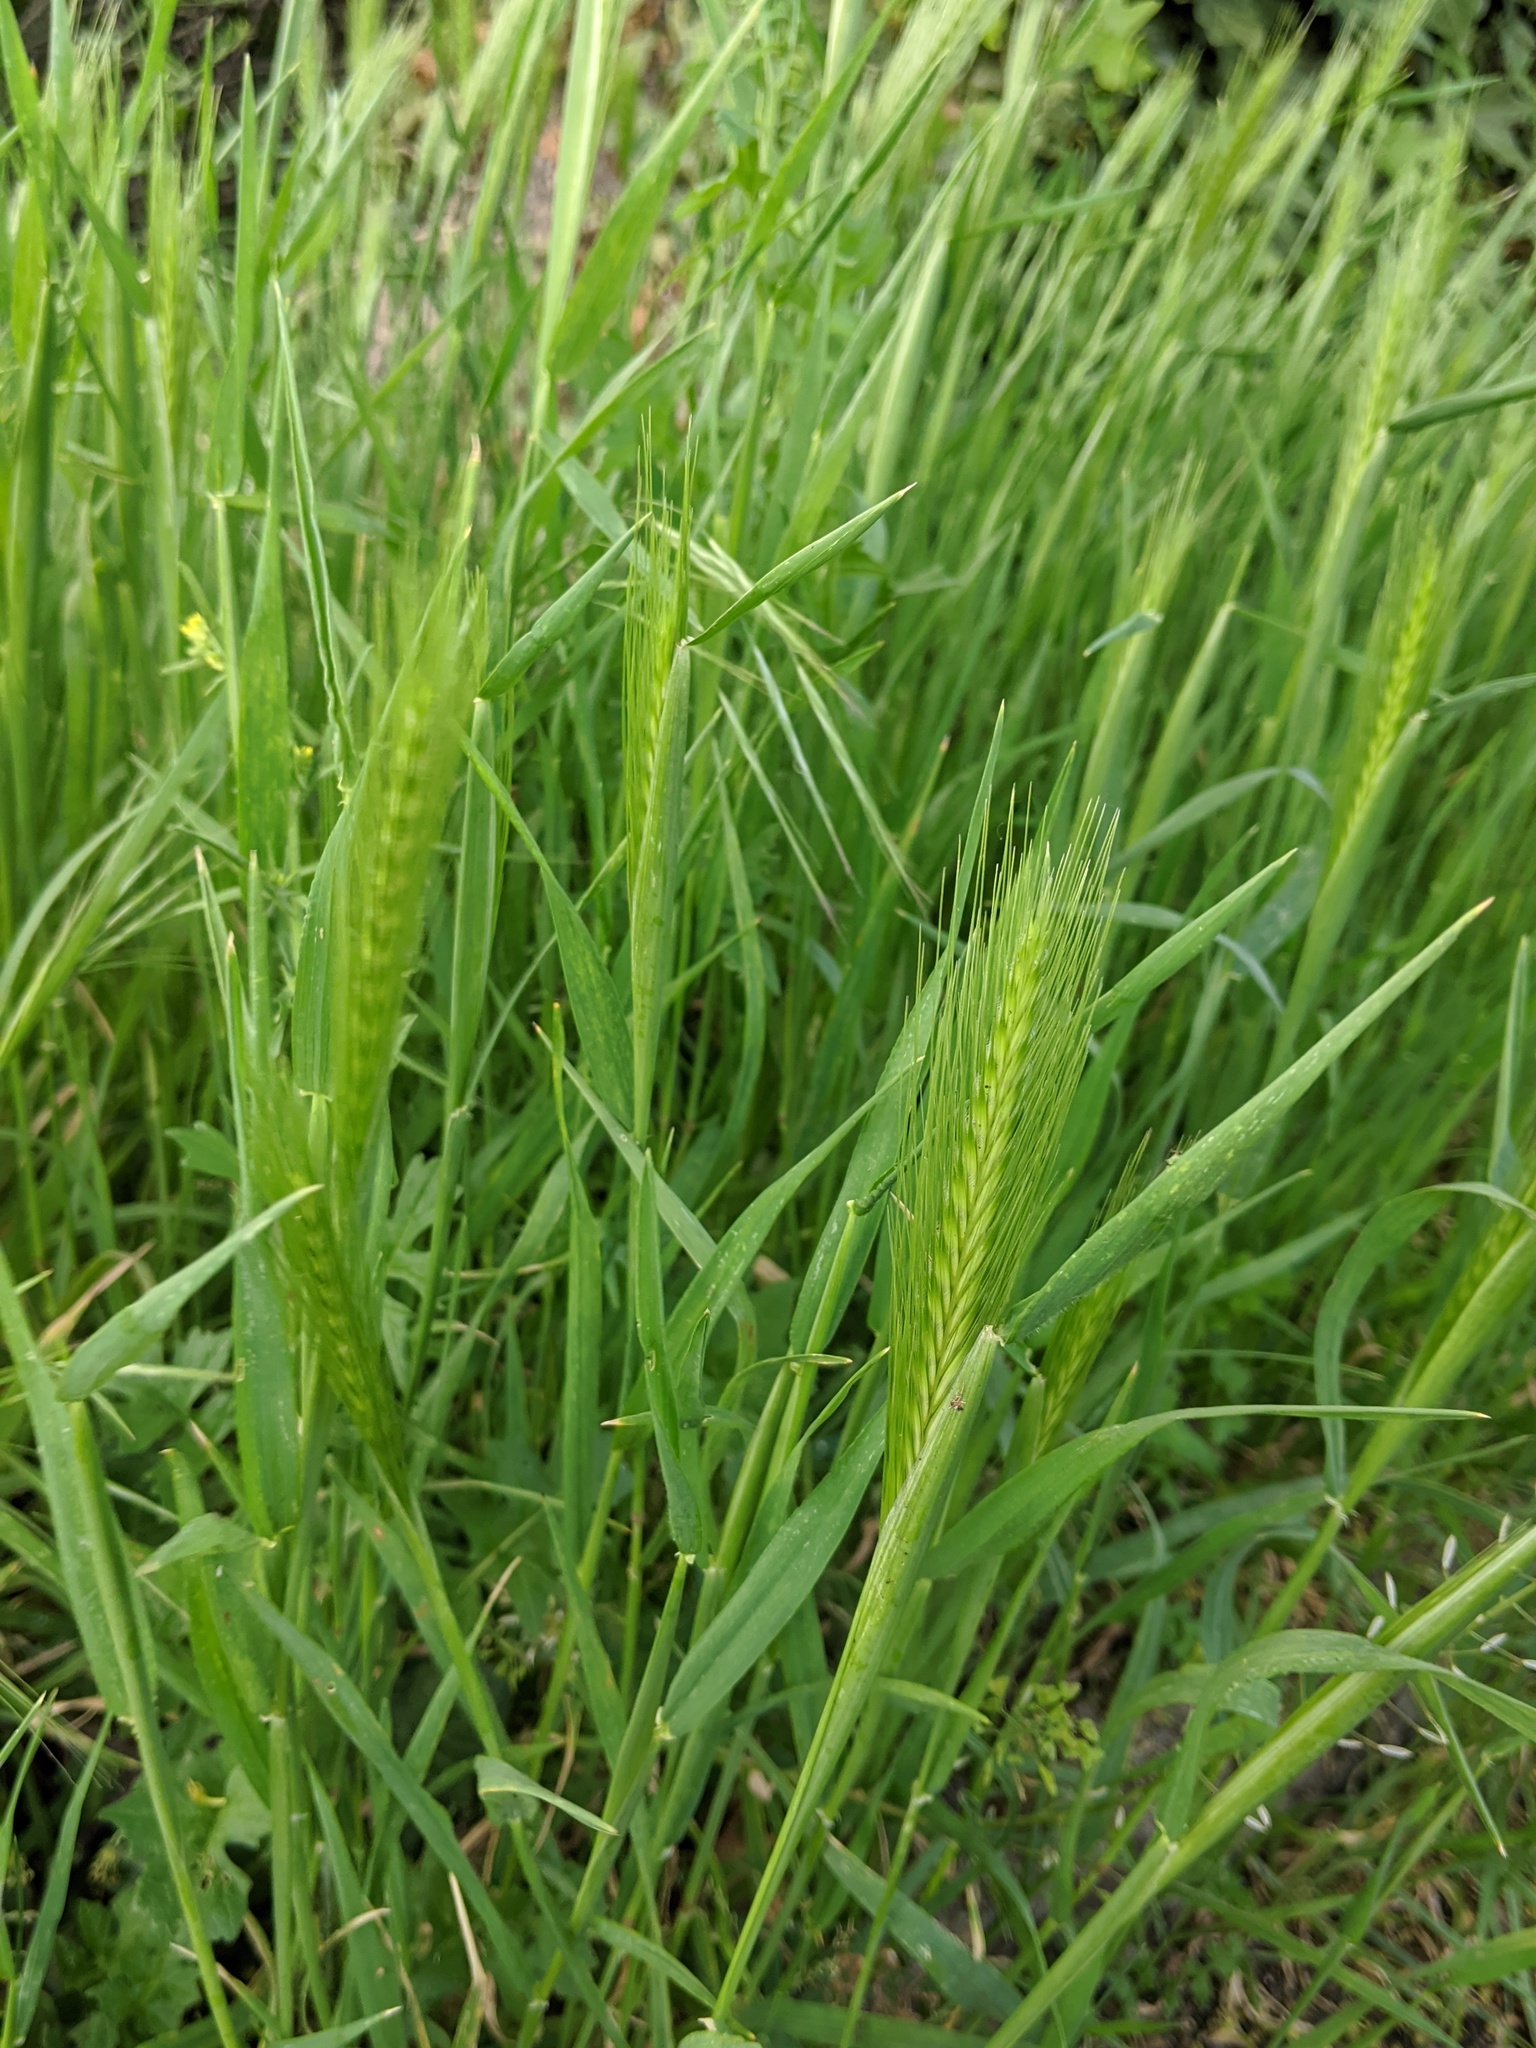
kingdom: Plantae
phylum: Tracheophyta
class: Liliopsida
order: Poales
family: Poaceae
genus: Hordeum
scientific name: Hordeum murinum
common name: Wall barley
